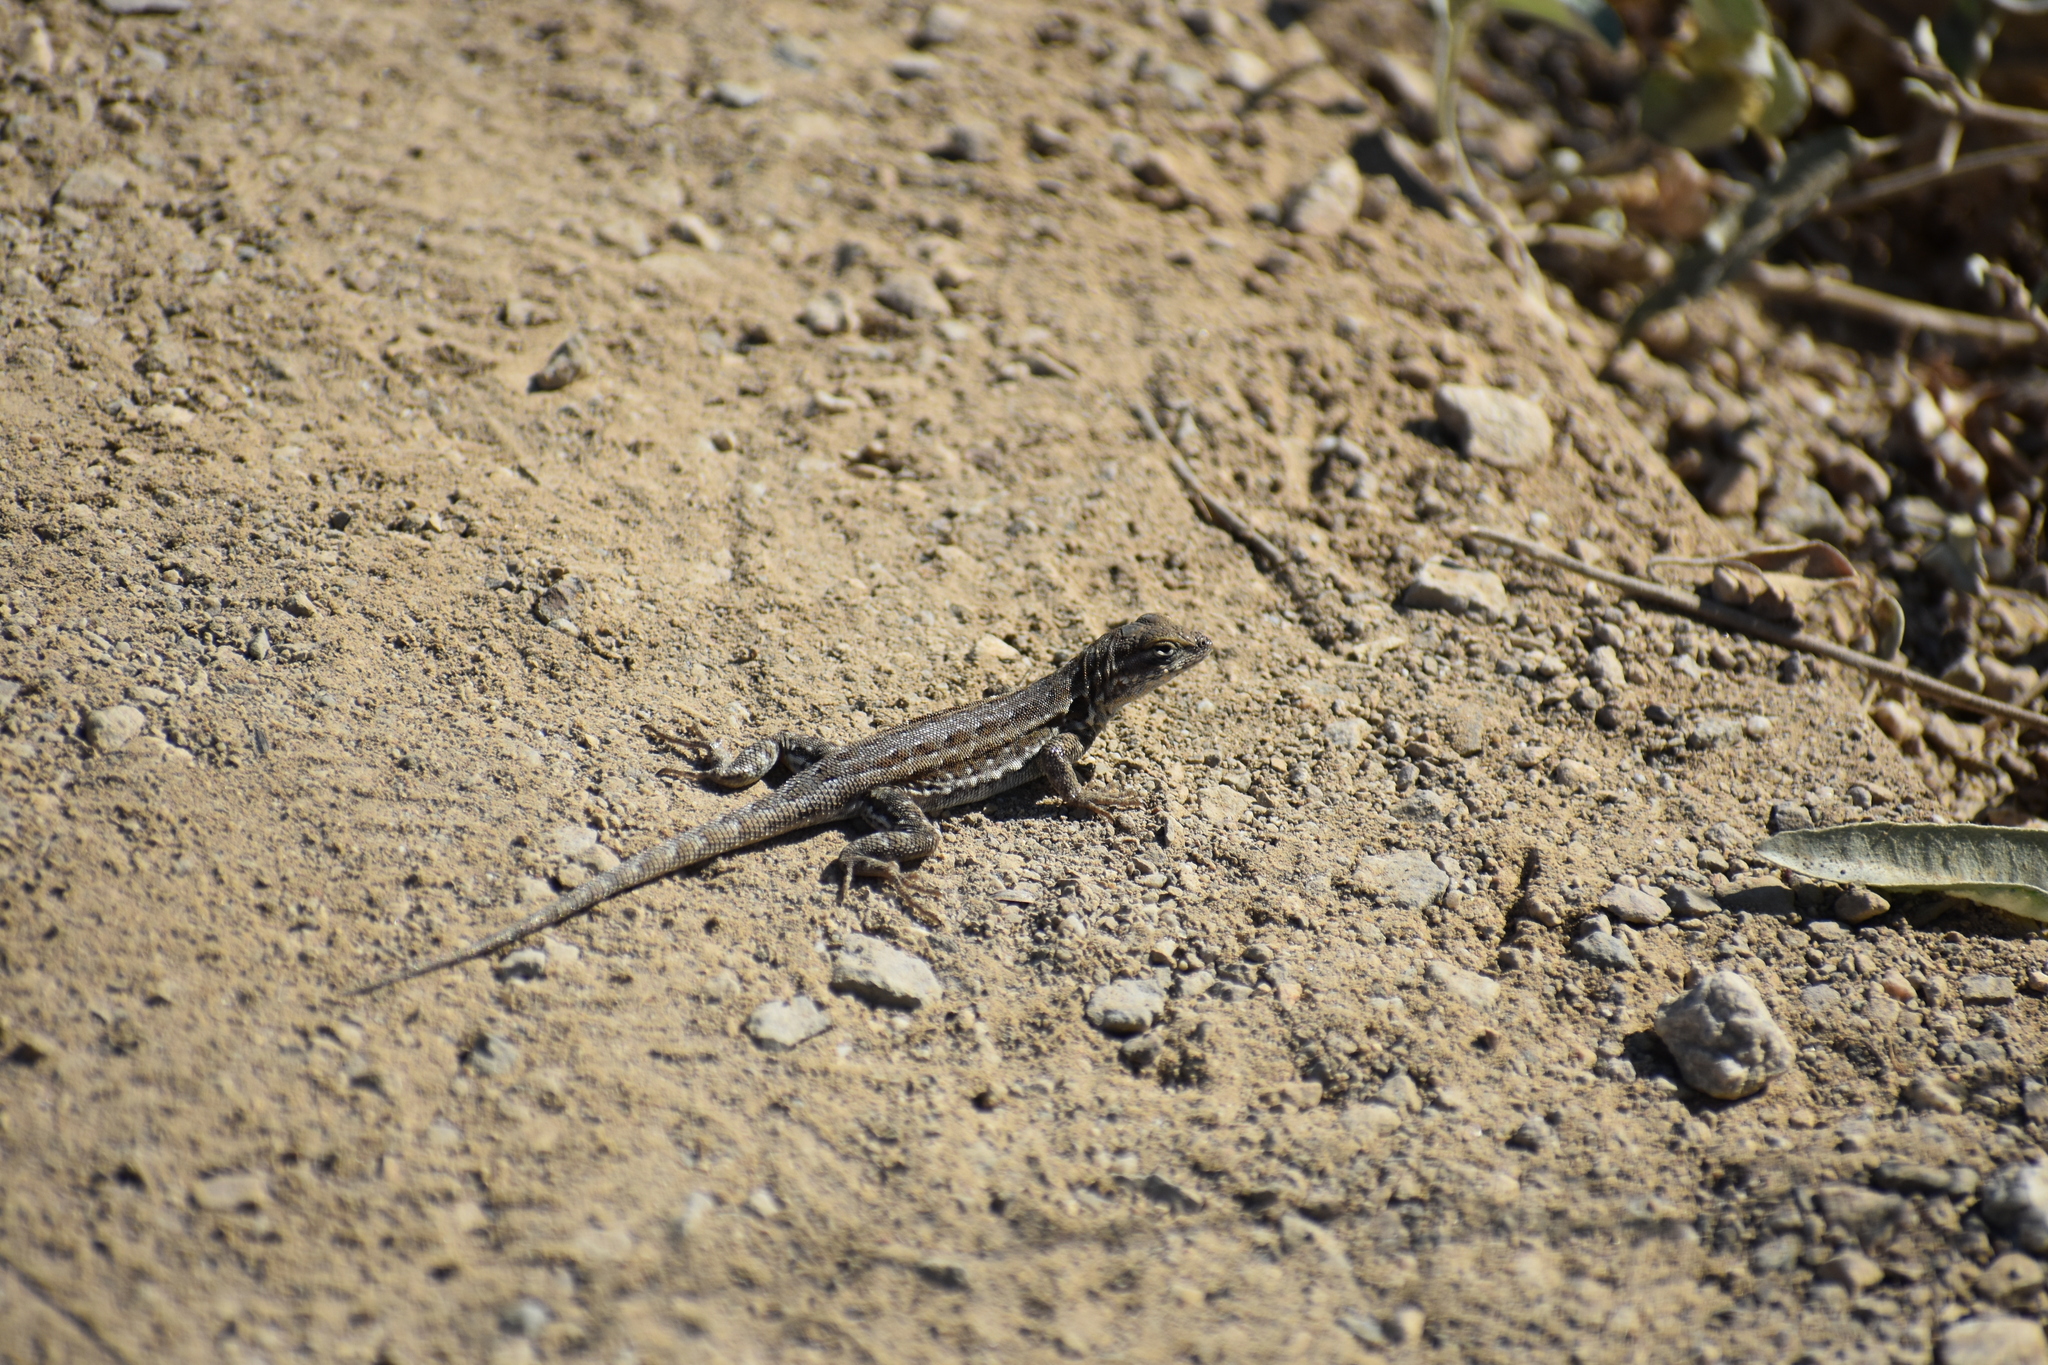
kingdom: Animalia
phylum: Chordata
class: Squamata
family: Phrynosomatidae
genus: Uta
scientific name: Uta stansburiana
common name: Side-blotched lizard
